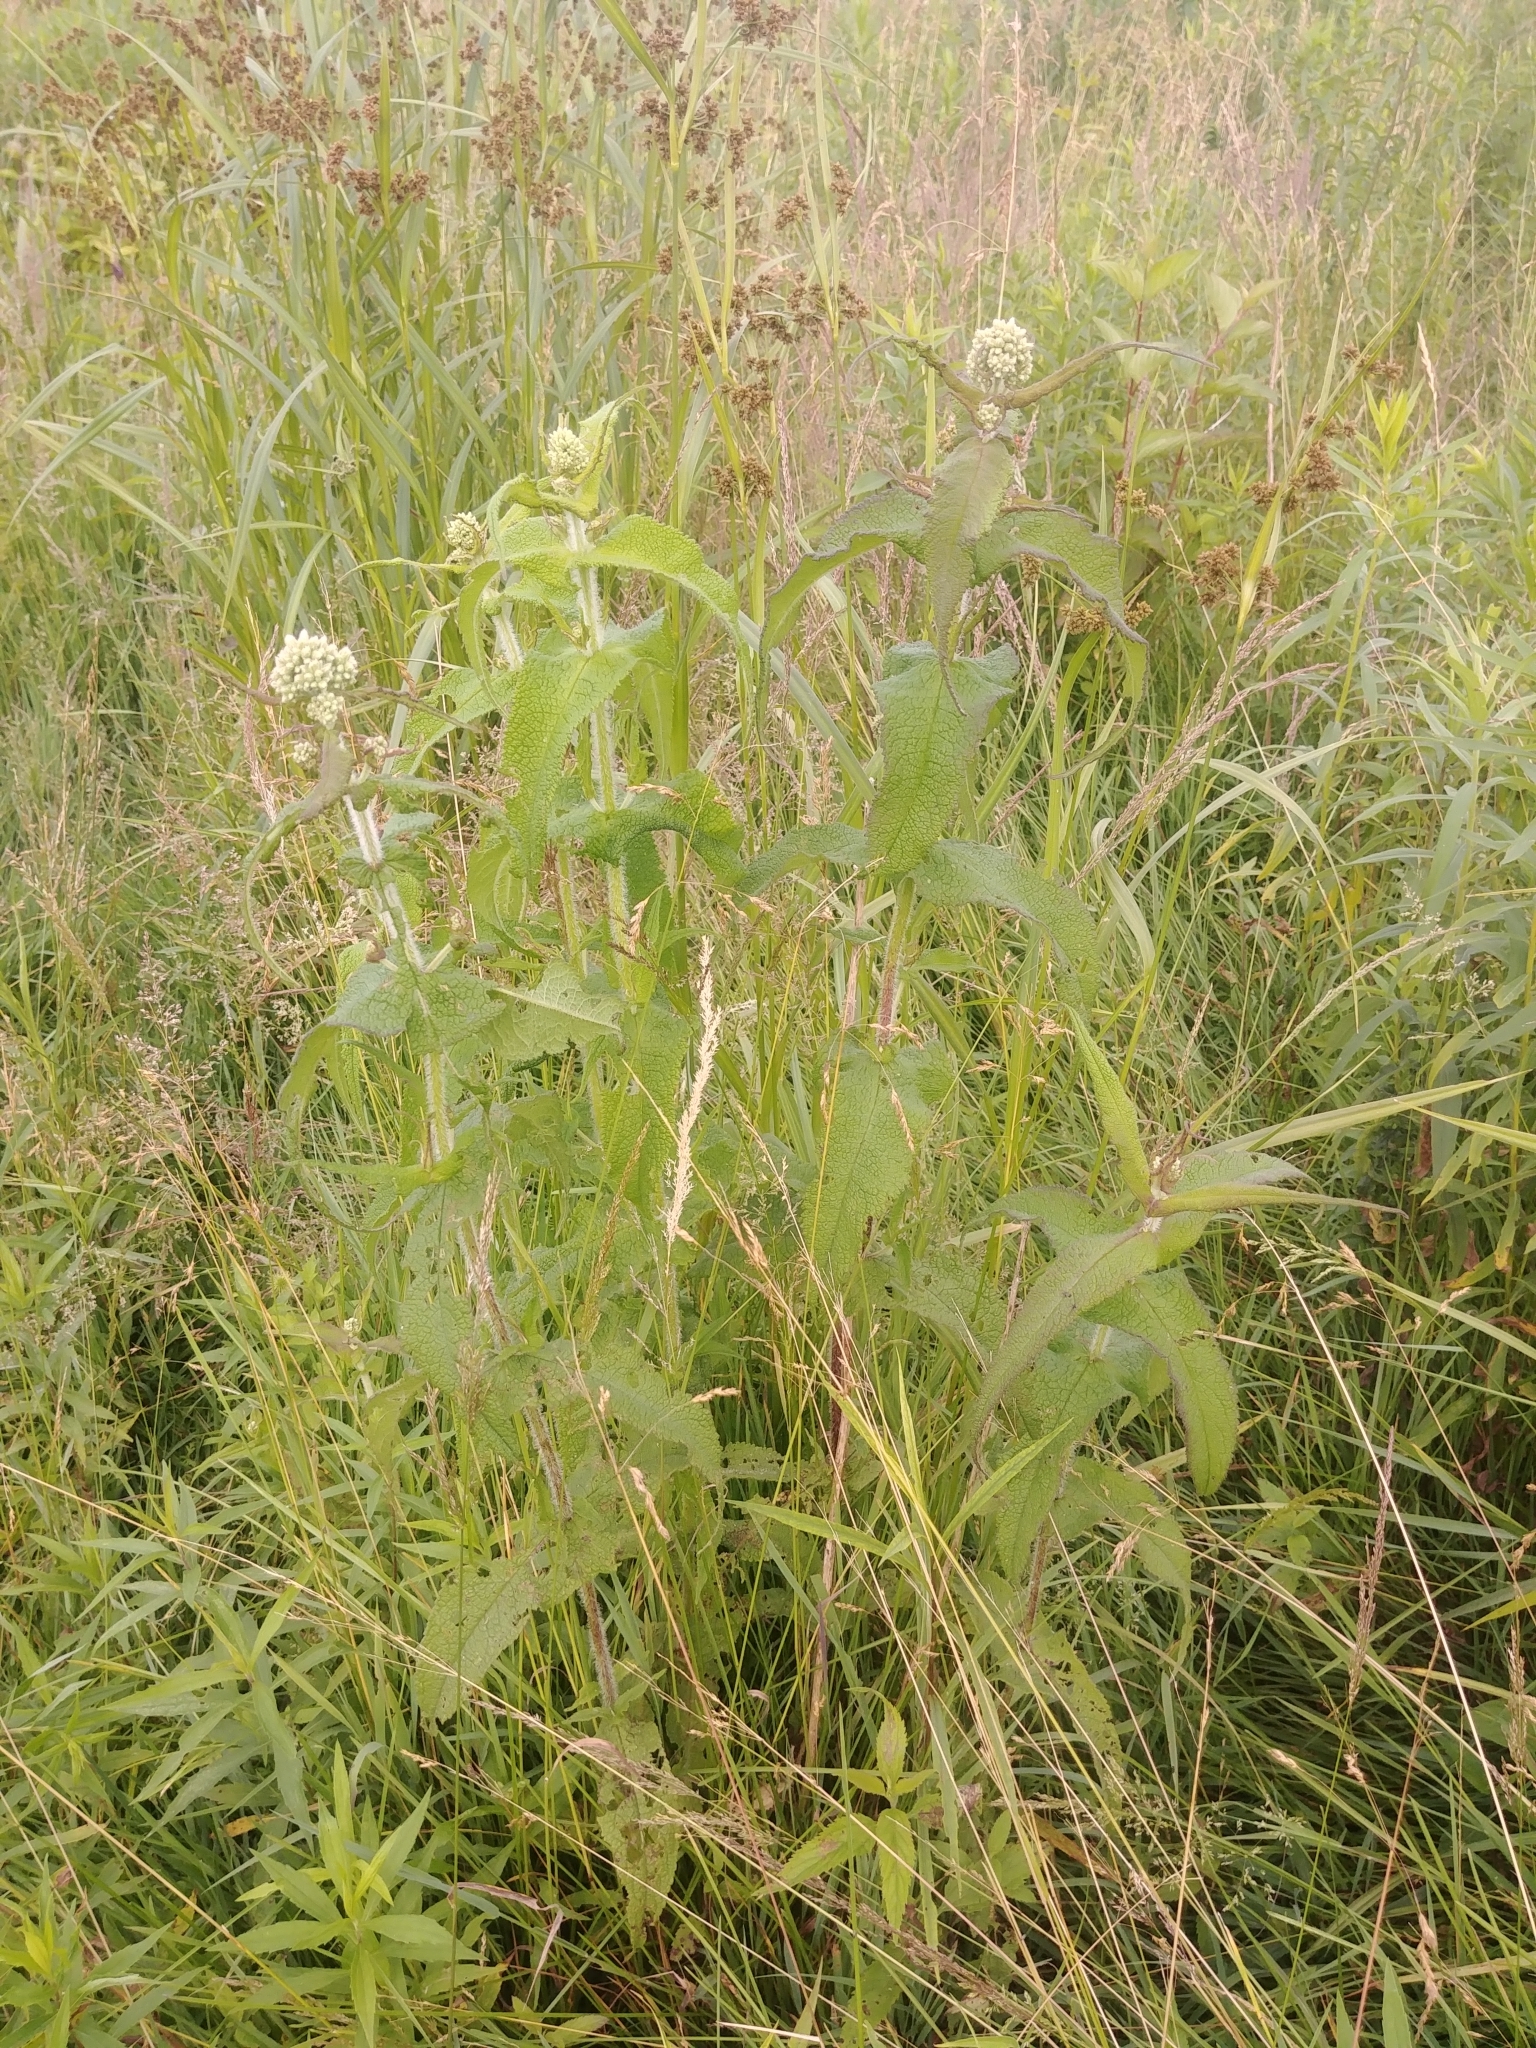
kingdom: Plantae
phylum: Tracheophyta
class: Magnoliopsida
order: Asterales
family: Asteraceae
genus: Eupatorium
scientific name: Eupatorium perfoliatum
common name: Boneset
